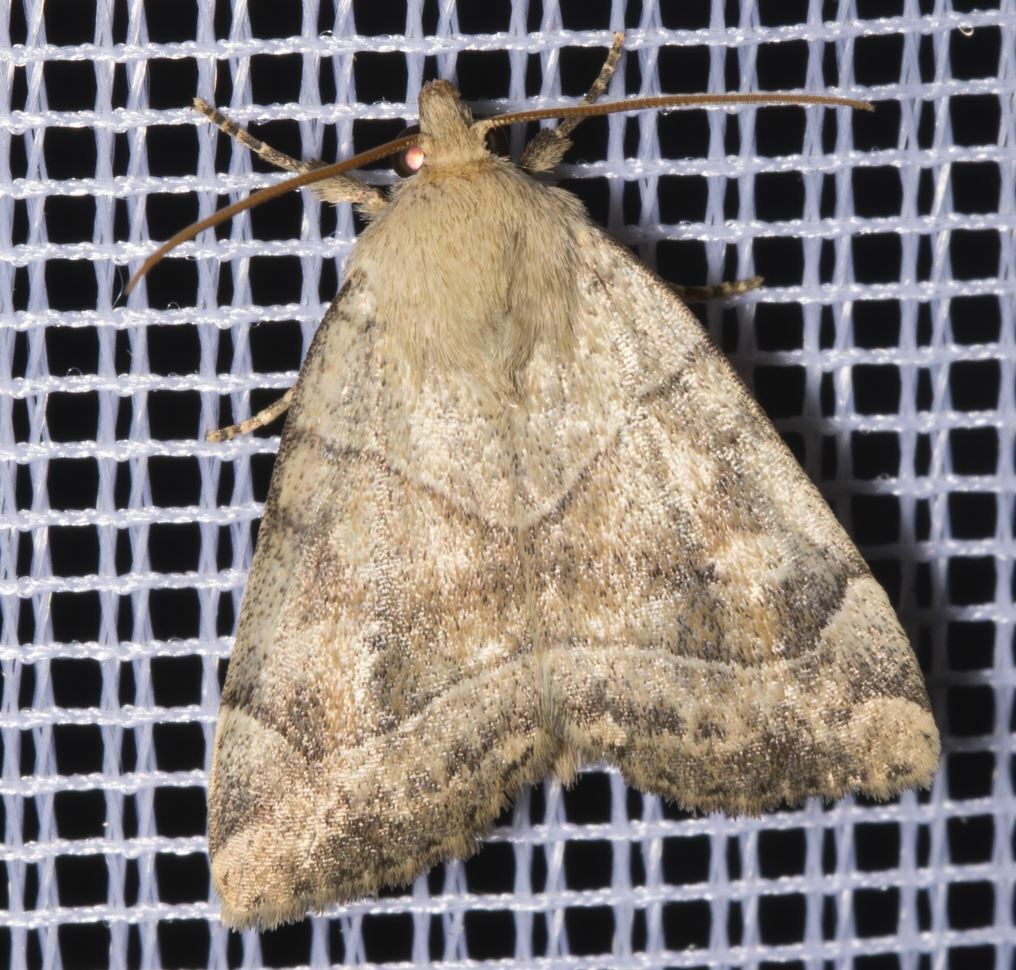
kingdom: Animalia
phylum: Arthropoda
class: Insecta
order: Lepidoptera
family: Noctuidae
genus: Cosmia
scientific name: Cosmia trapezina
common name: Dun-bar
